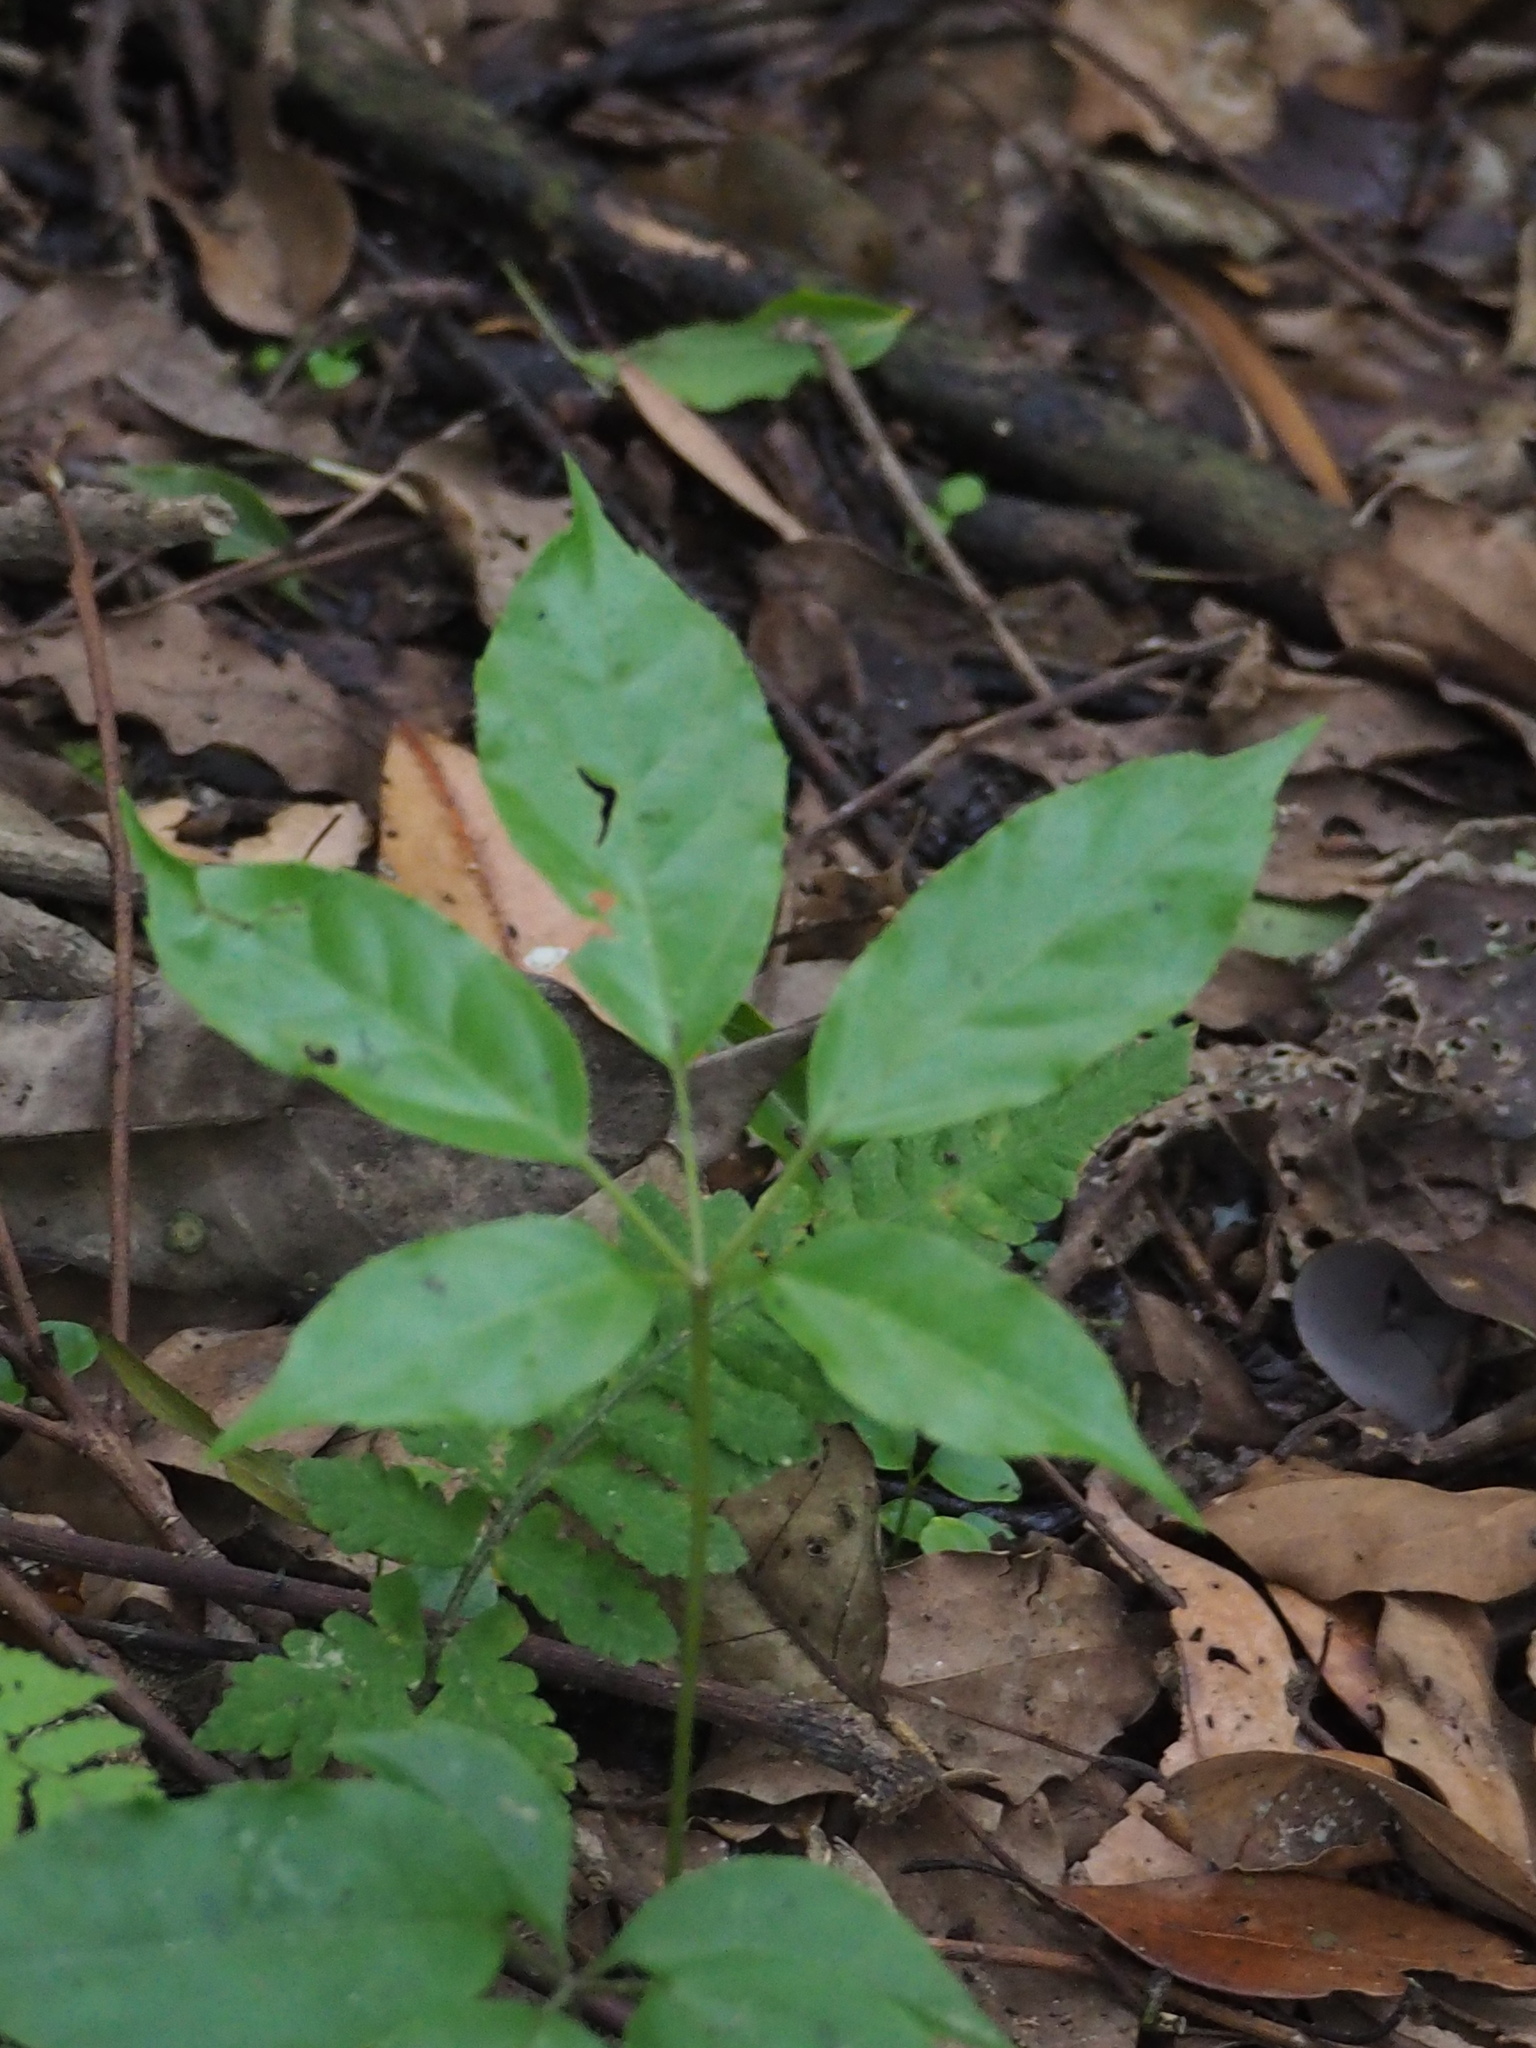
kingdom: Plantae
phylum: Tracheophyta
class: Magnoliopsida
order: Apiales
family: Araliaceae
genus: Heptapleurum
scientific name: Heptapleurum heptaphyllum
